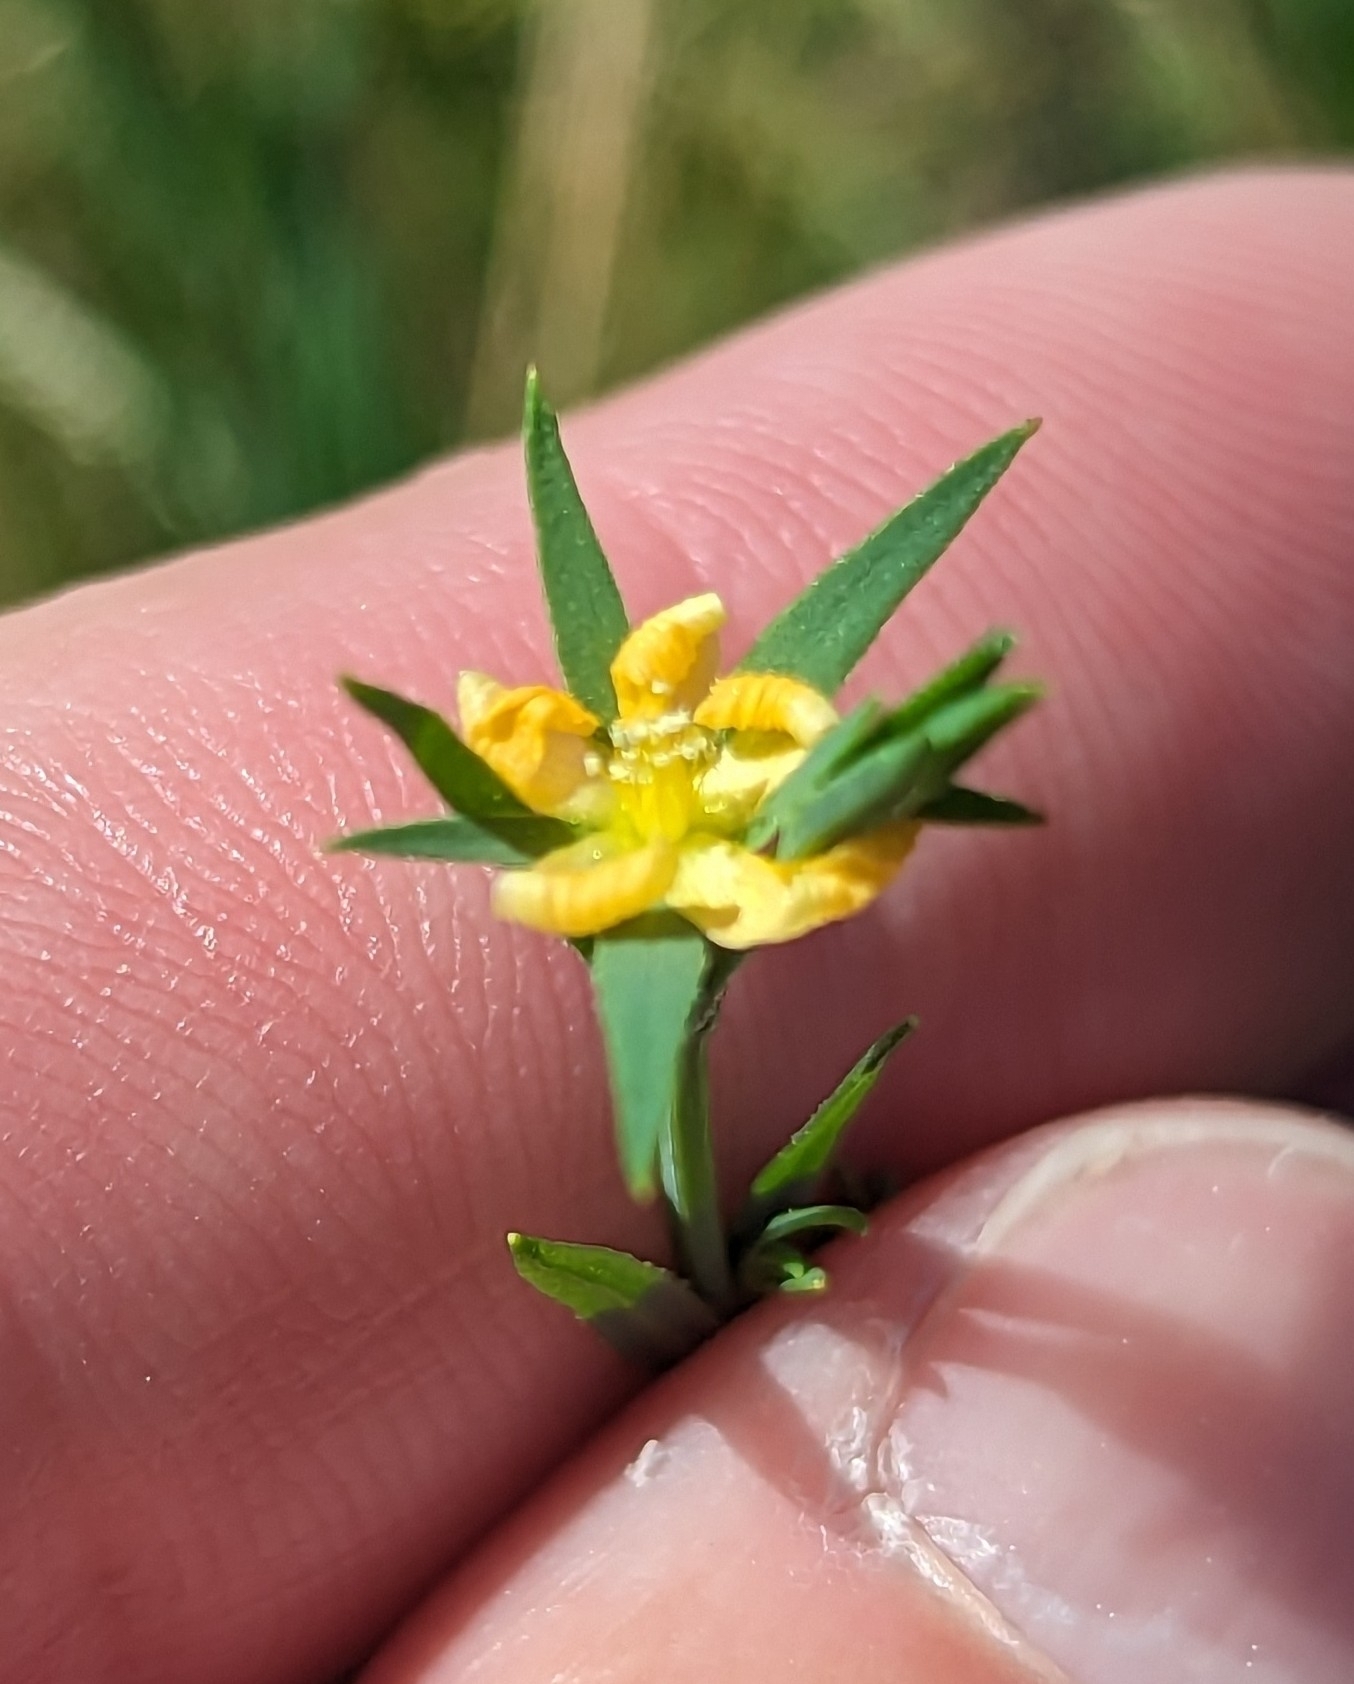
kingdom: Plantae
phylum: Tracheophyta
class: Magnoliopsida
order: Malpighiales
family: Hypericaceae
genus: Hypericum
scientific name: Hypericum drummondii
